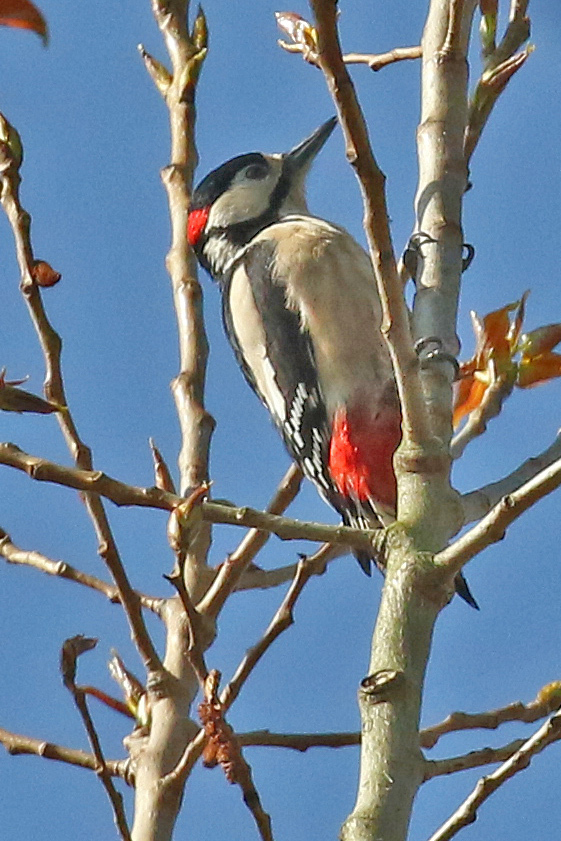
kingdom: Animalia
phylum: Chordata
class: Aves
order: Piciformes
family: Picidae
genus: Dendrocopos
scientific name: Dendrocopos major
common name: Great spotted woodpecker
